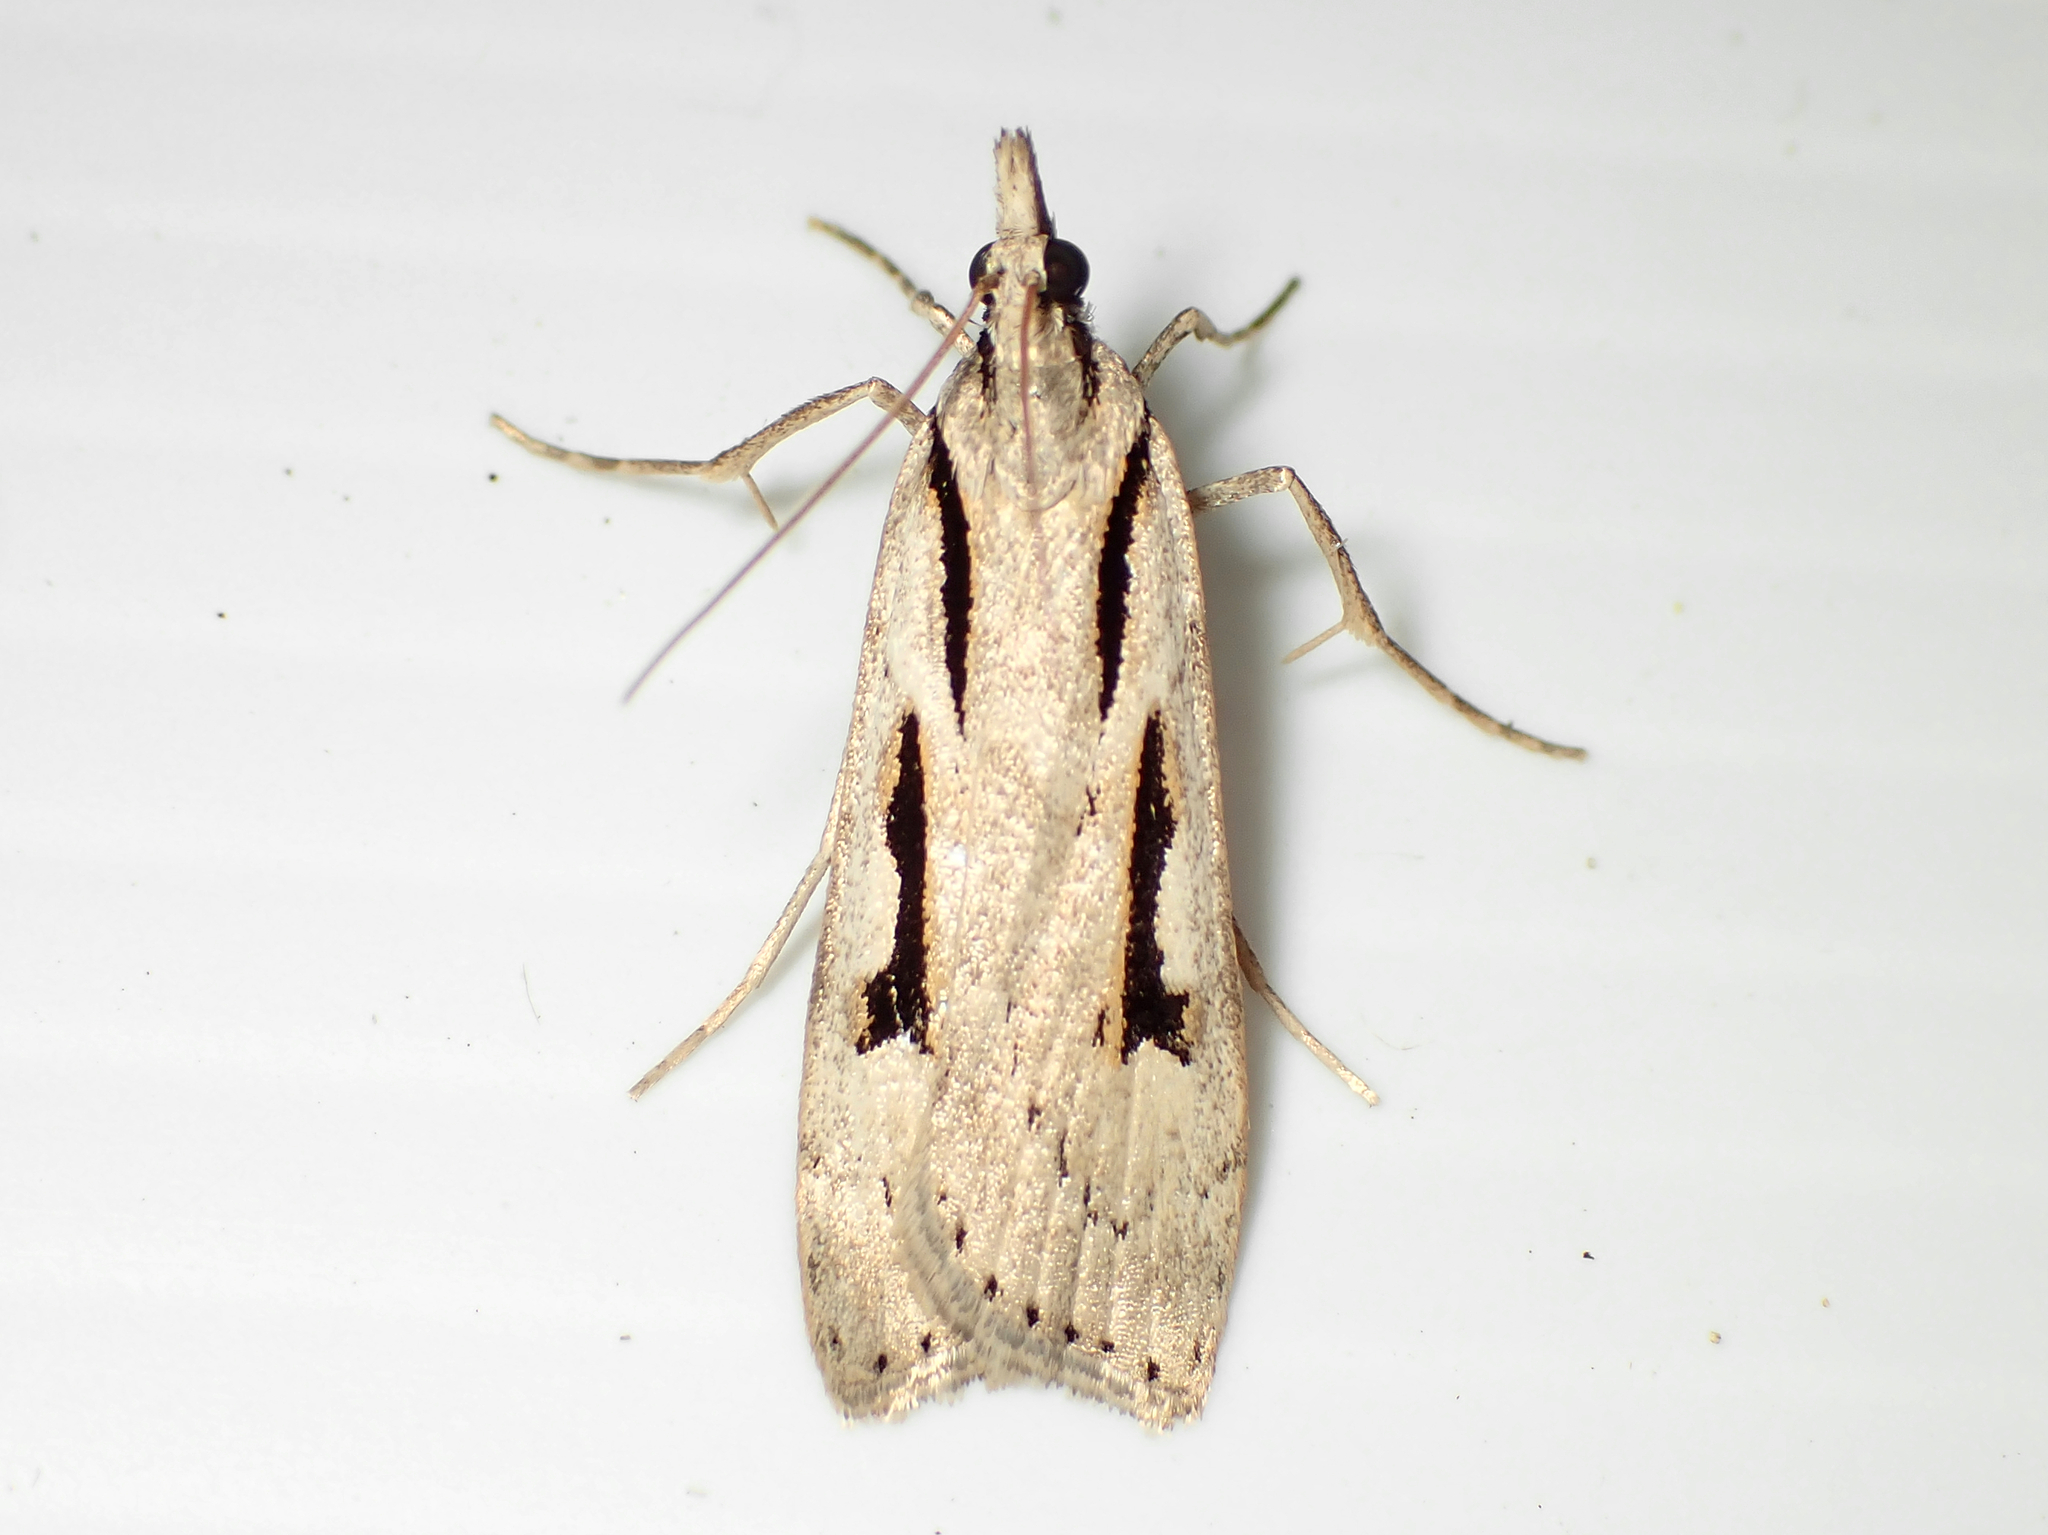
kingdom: Animalia
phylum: Arthropoda
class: Insecta
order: Lepidoptera
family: Crambidae
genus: Scoparia
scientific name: Scoparia rotuellus
